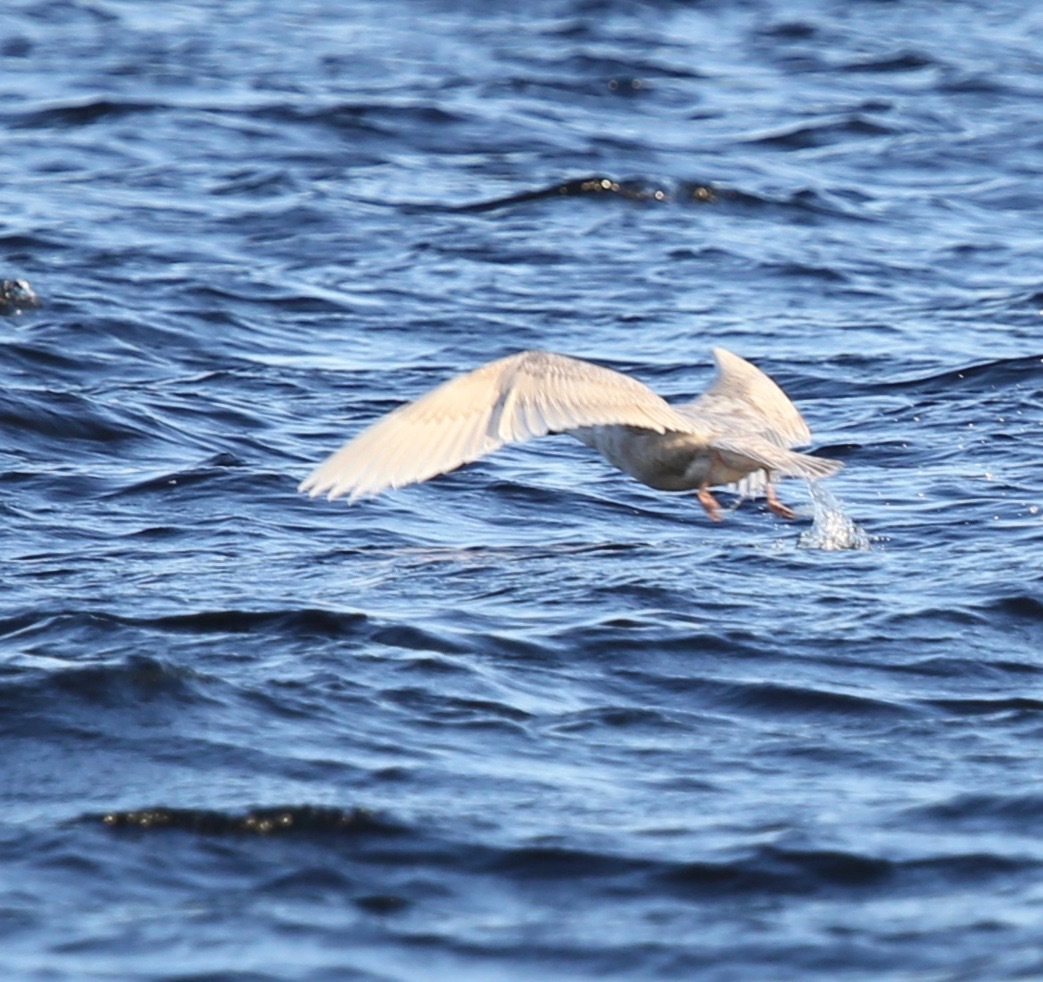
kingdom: Animalia
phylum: Chordata
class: Aves
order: Charadriiformes
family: Laridae
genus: Larus
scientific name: Larus hyperboreus
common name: Glaucous gull
